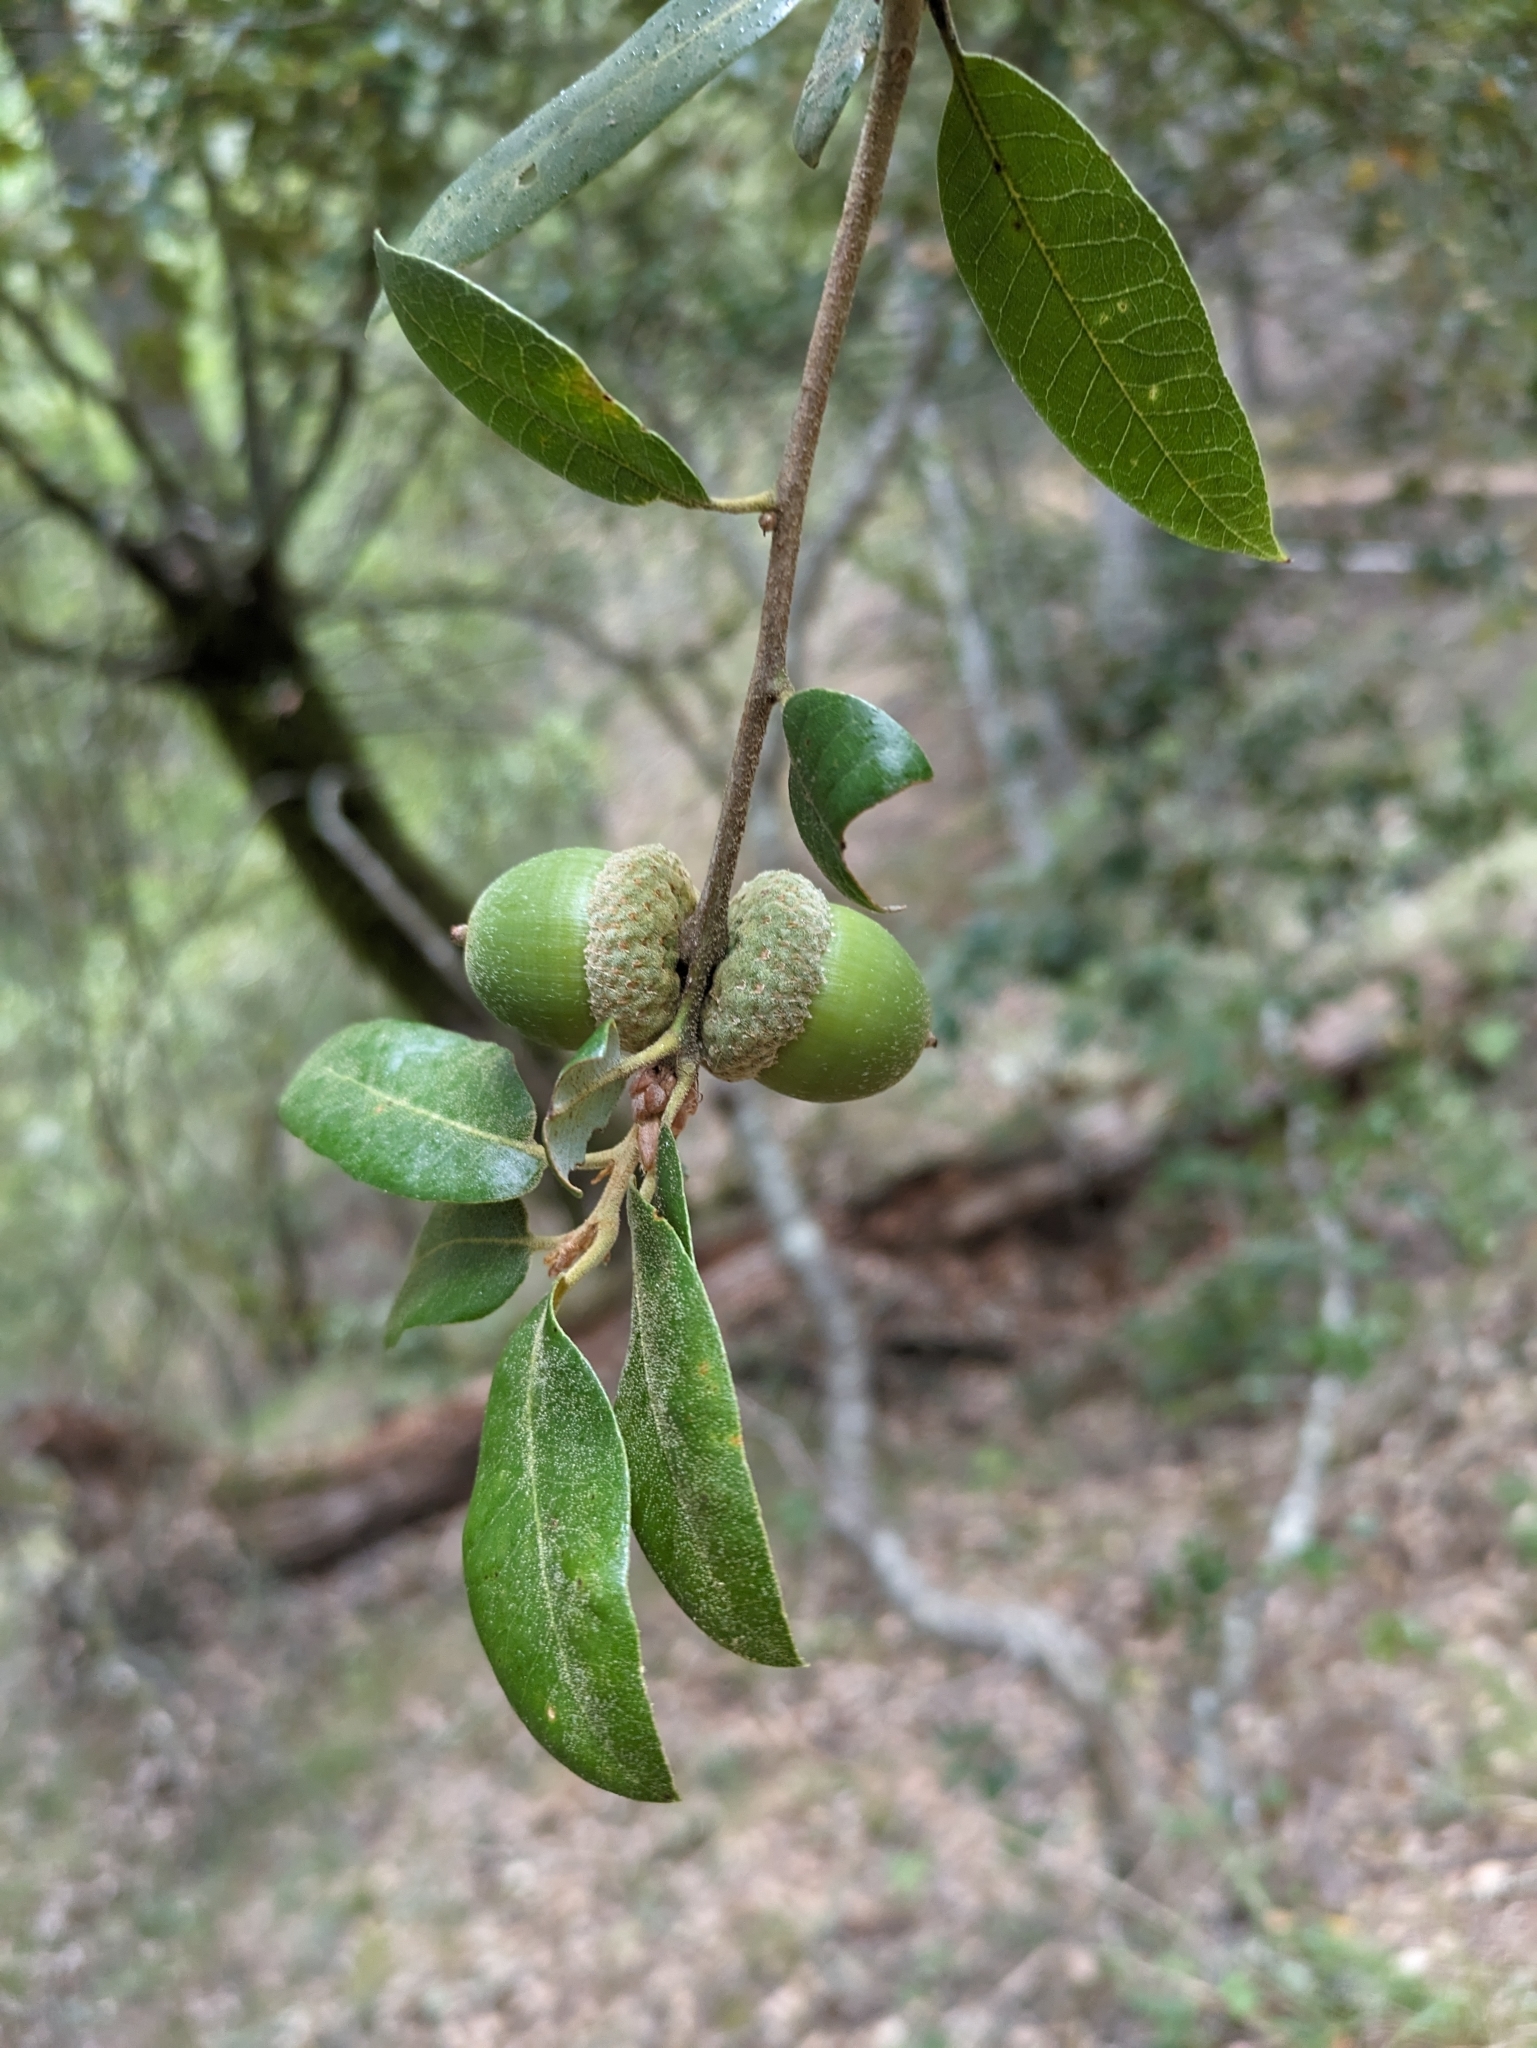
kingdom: Plantae
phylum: Tracheophyta
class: Magnoliopsida
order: Fagales
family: Fagaceae
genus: Quercus
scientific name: Quercus chrysolepis
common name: Canyon live oak
